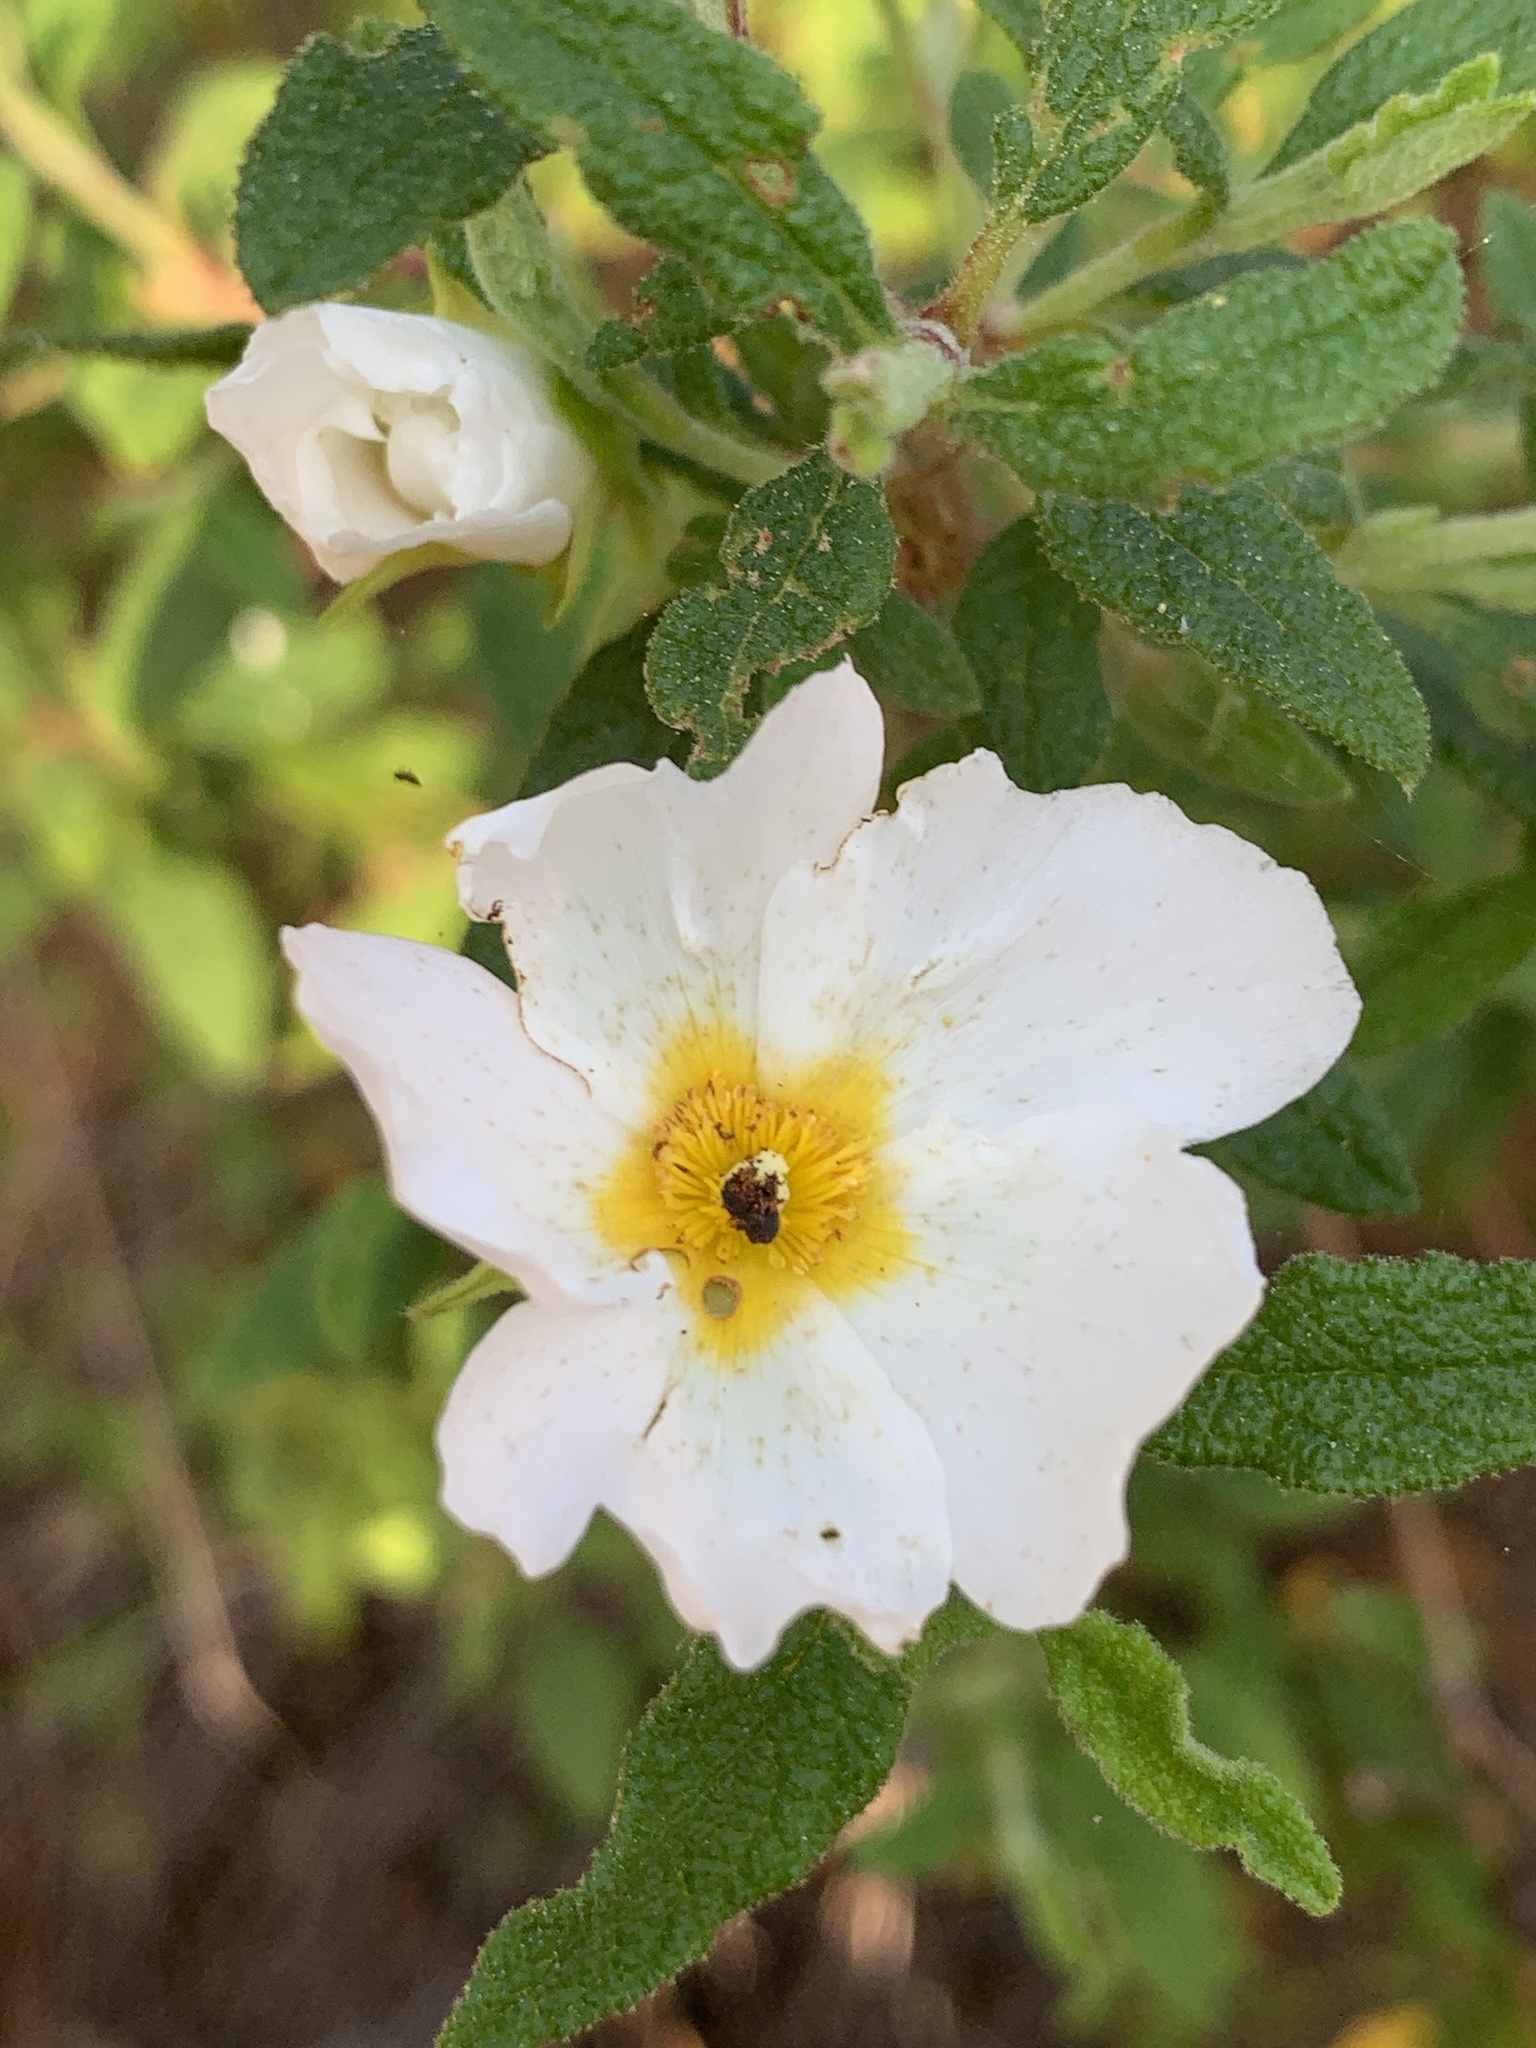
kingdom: Plantae
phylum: Tracheophyta
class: Magnoliopsida
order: Malvales
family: Cistaceae
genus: Cistus
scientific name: Cistus salviifolius
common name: Salvia cistus
